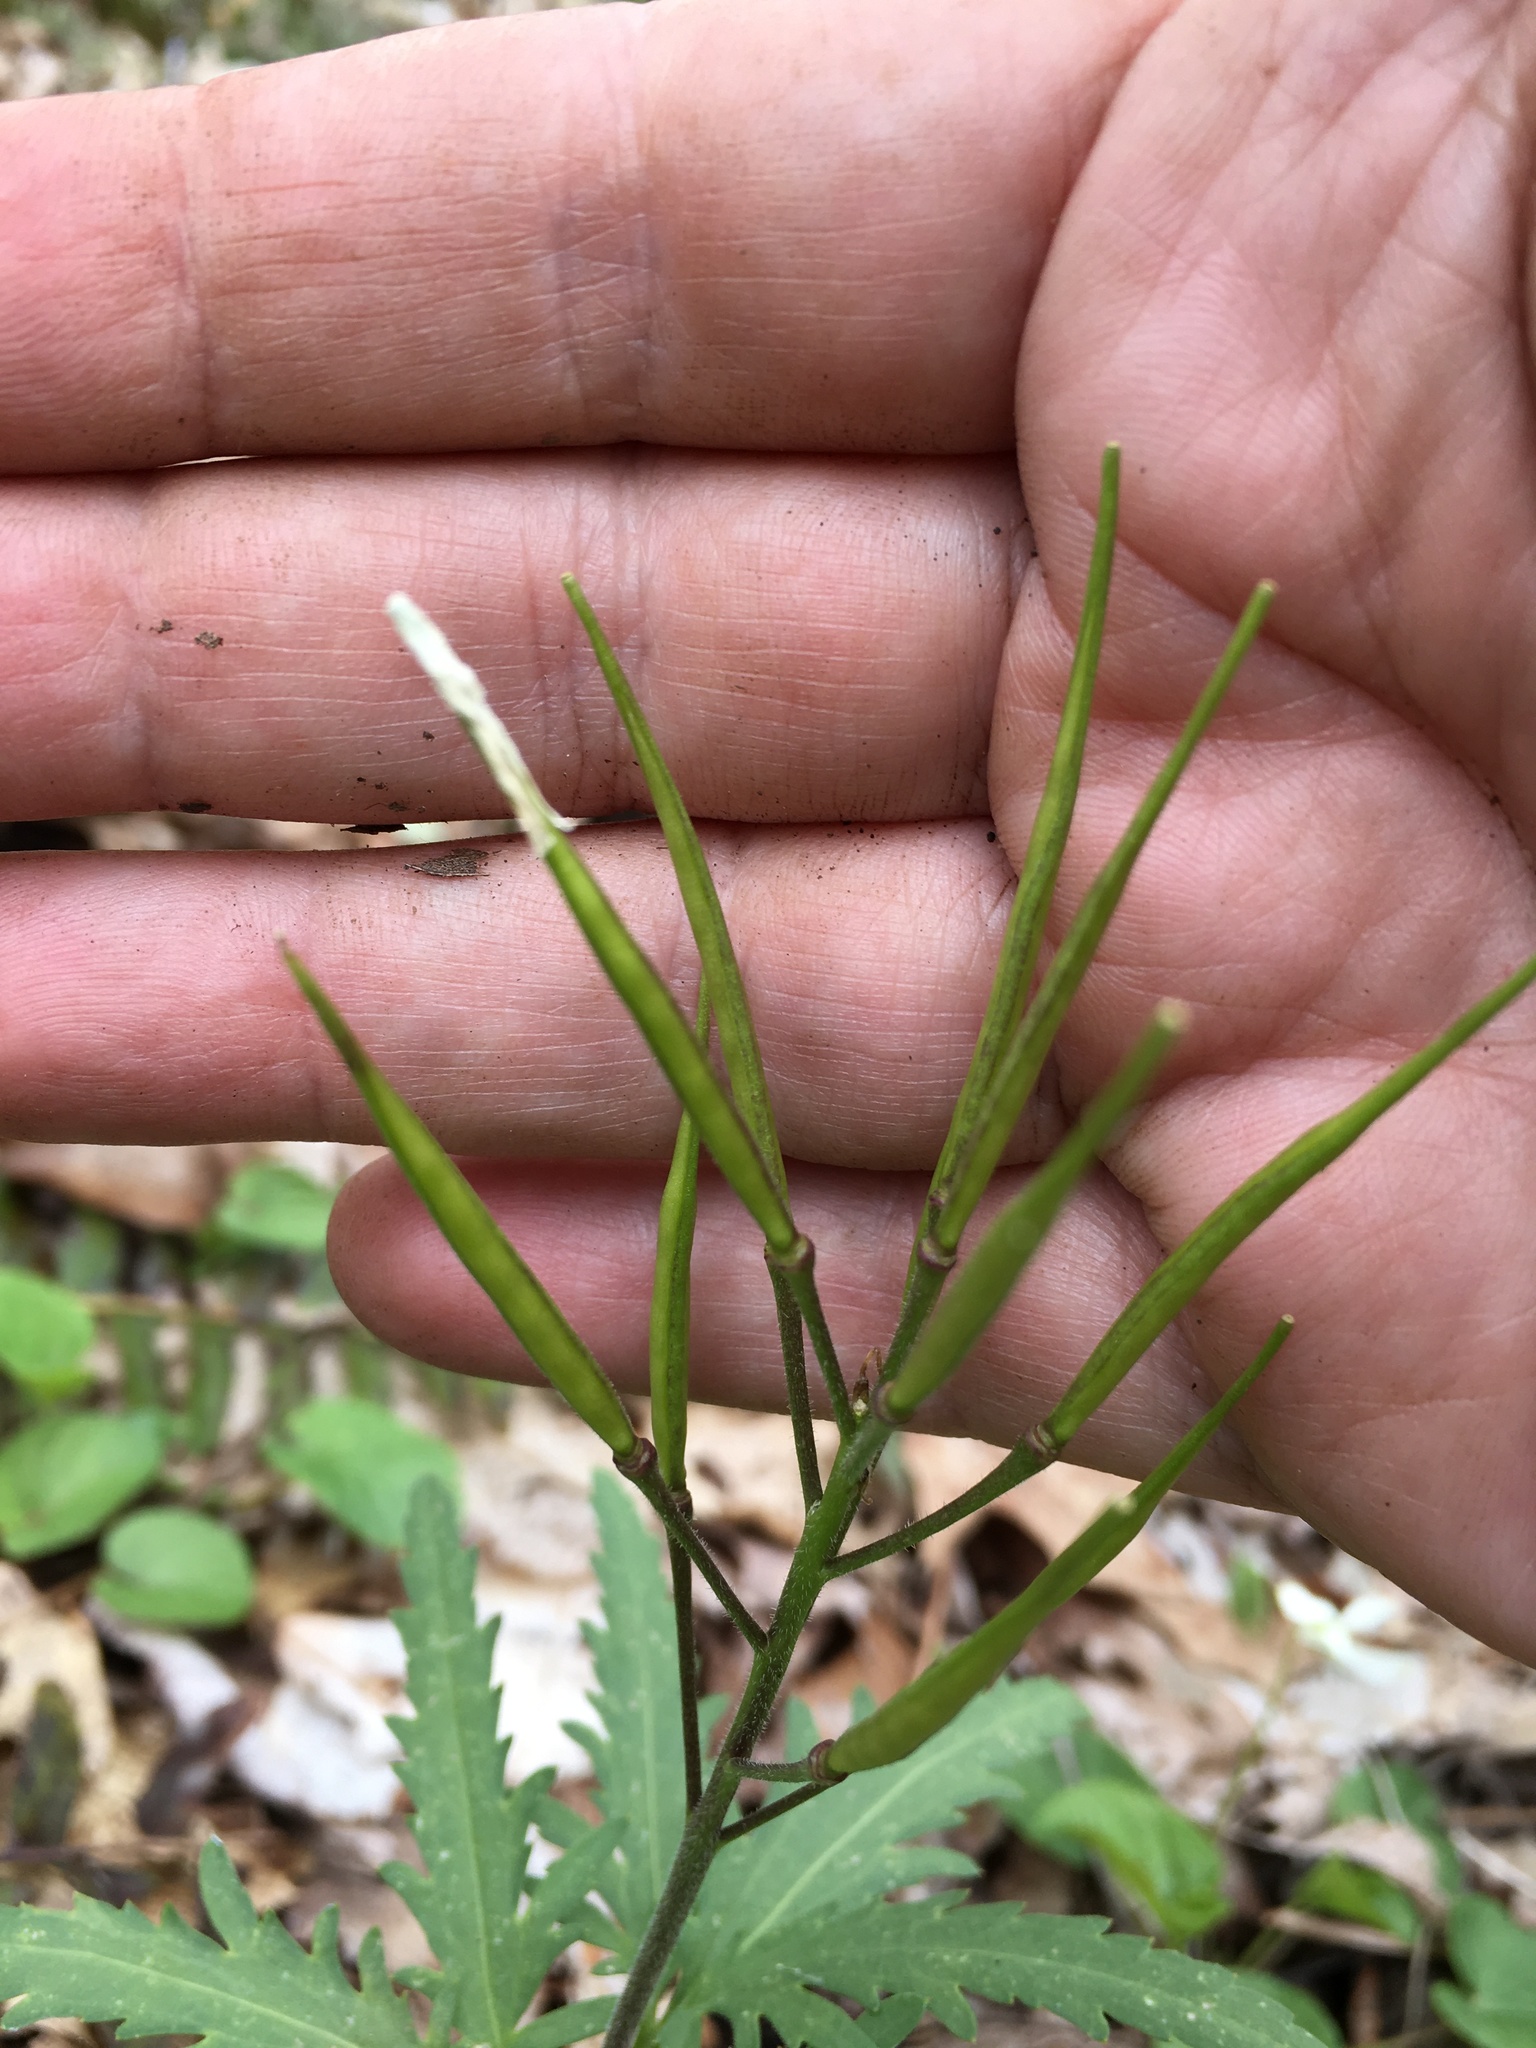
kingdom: Plantae
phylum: Tracheophyta
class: Magnoliopsida
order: Brassicales
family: Brassicaceae
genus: Cardamine
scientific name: Cardamine concatenata
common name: Cut-leaf toothcup
